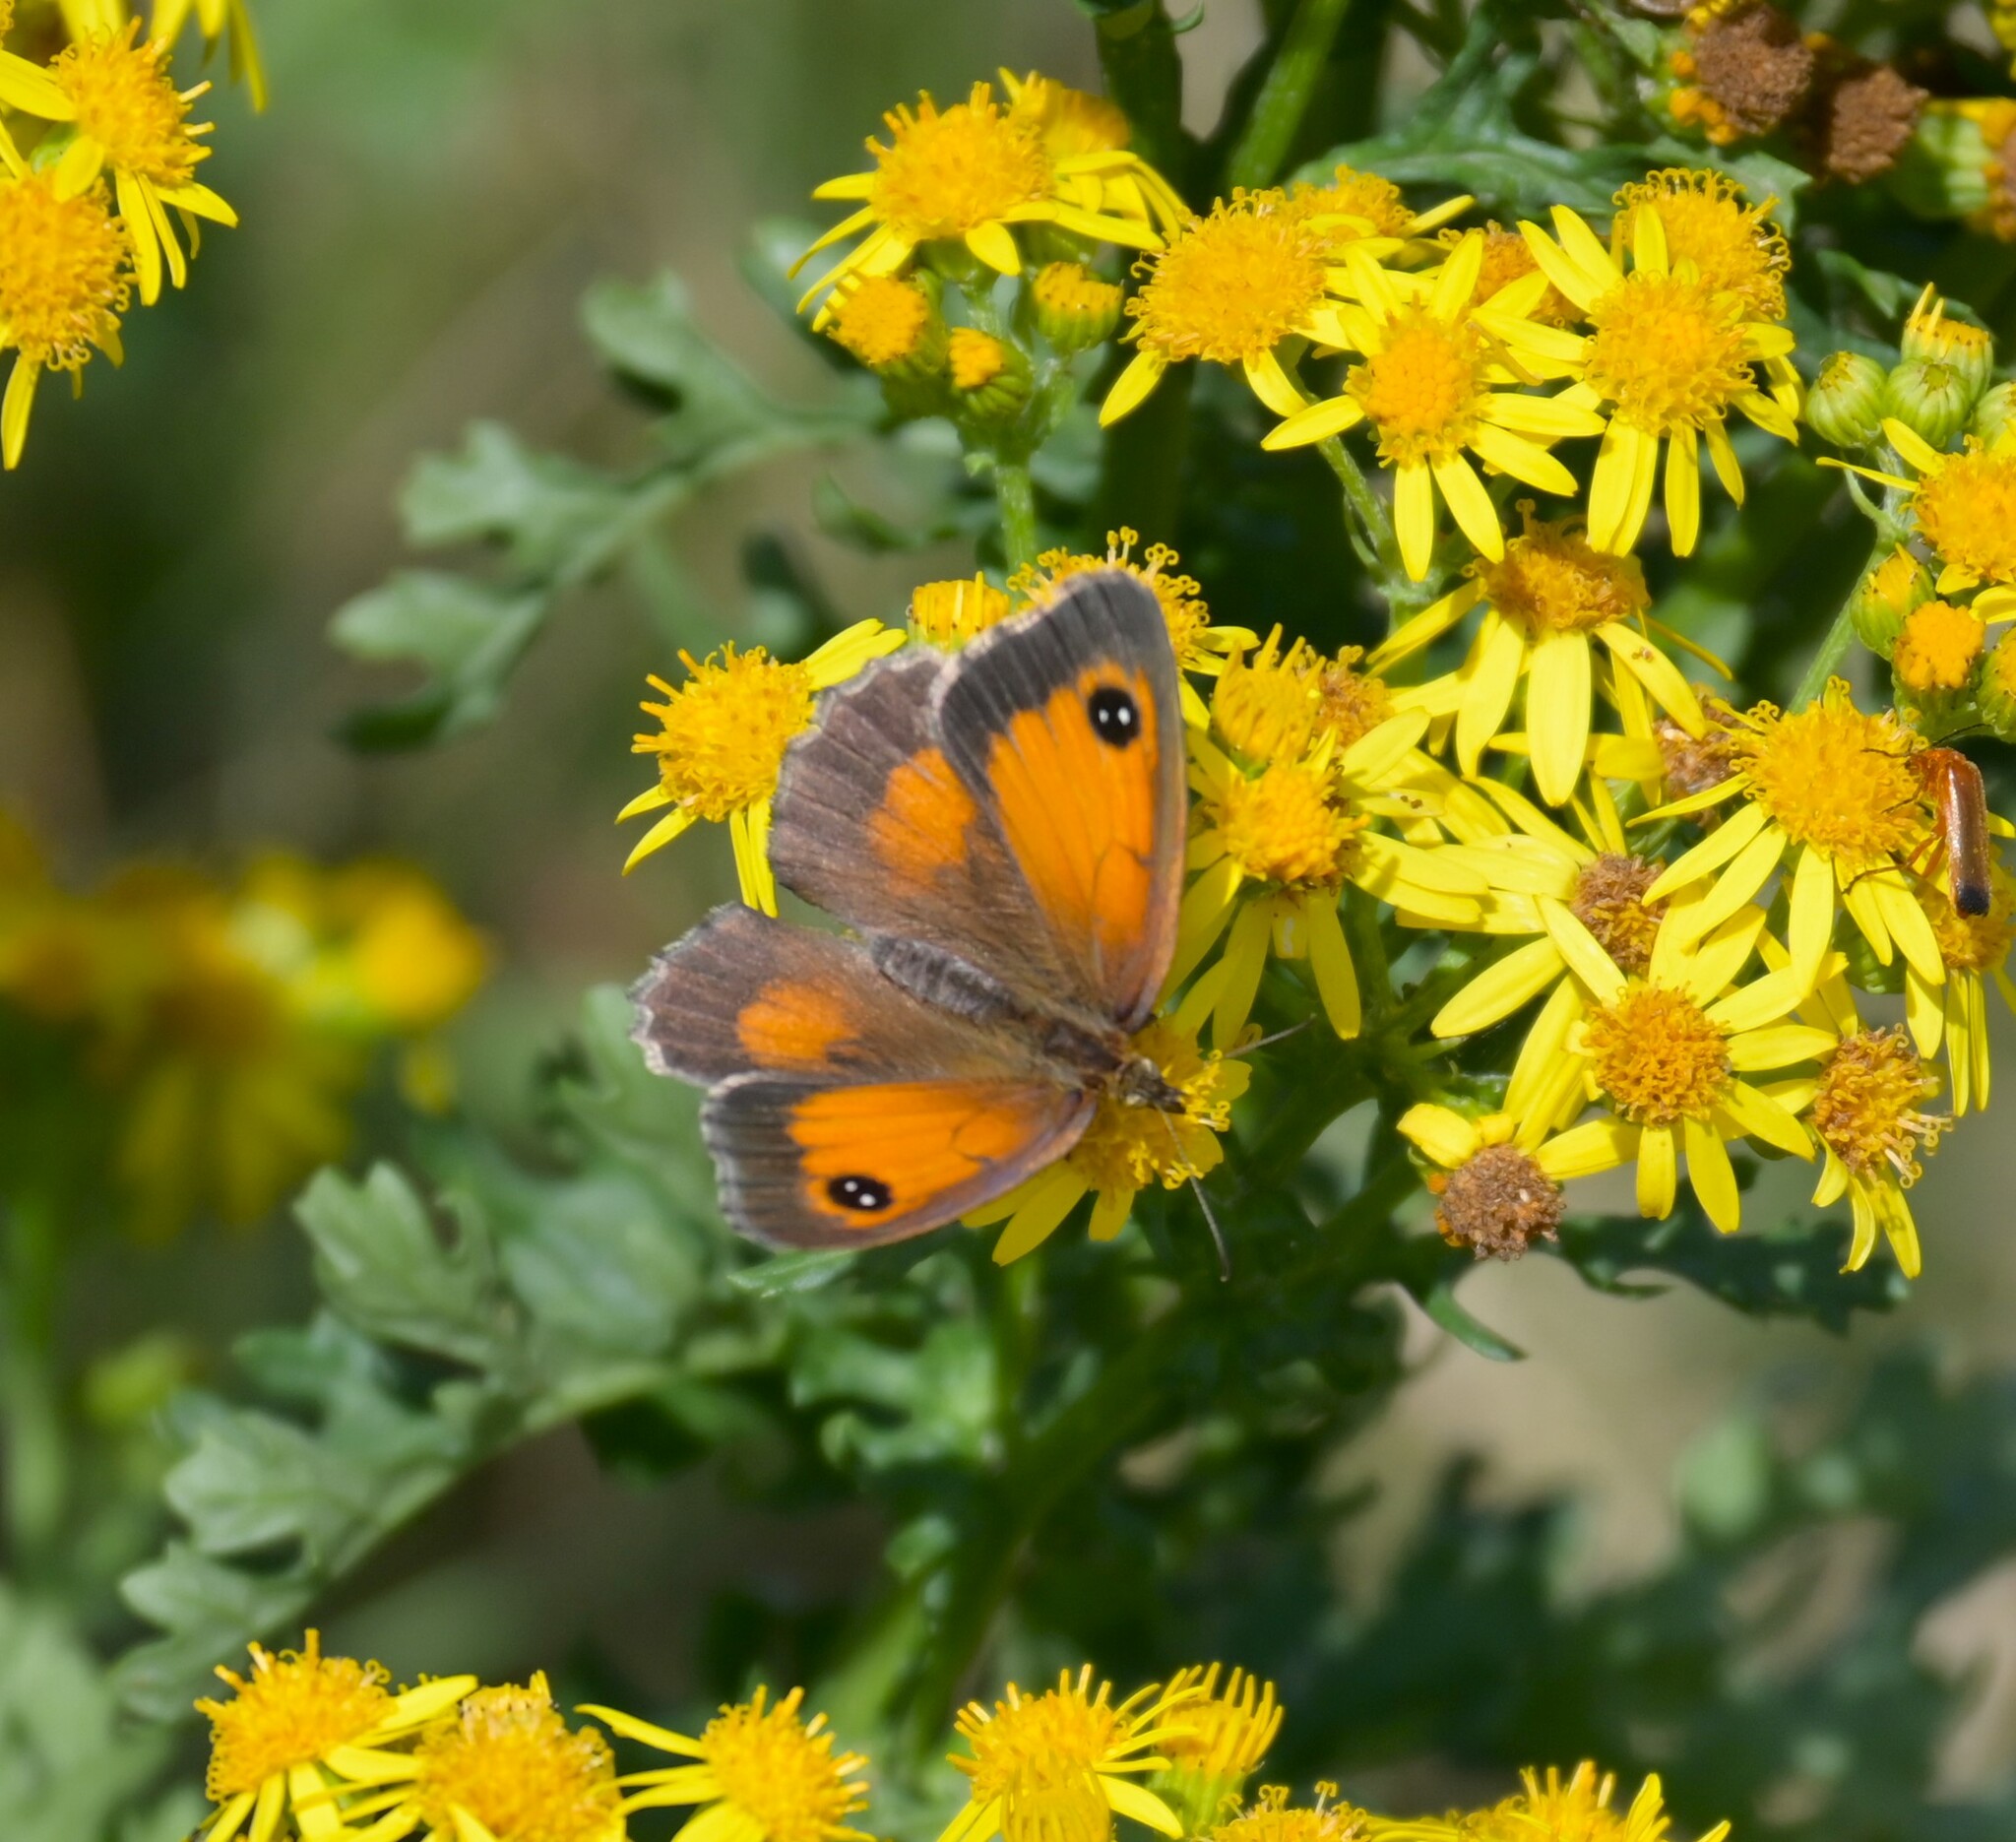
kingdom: Animalia
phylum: Arthropoda
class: Insecta
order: Lepidoptera
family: Nymphalidae
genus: Pyronia
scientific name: Pyronia tithonus
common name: Gatekeeper
